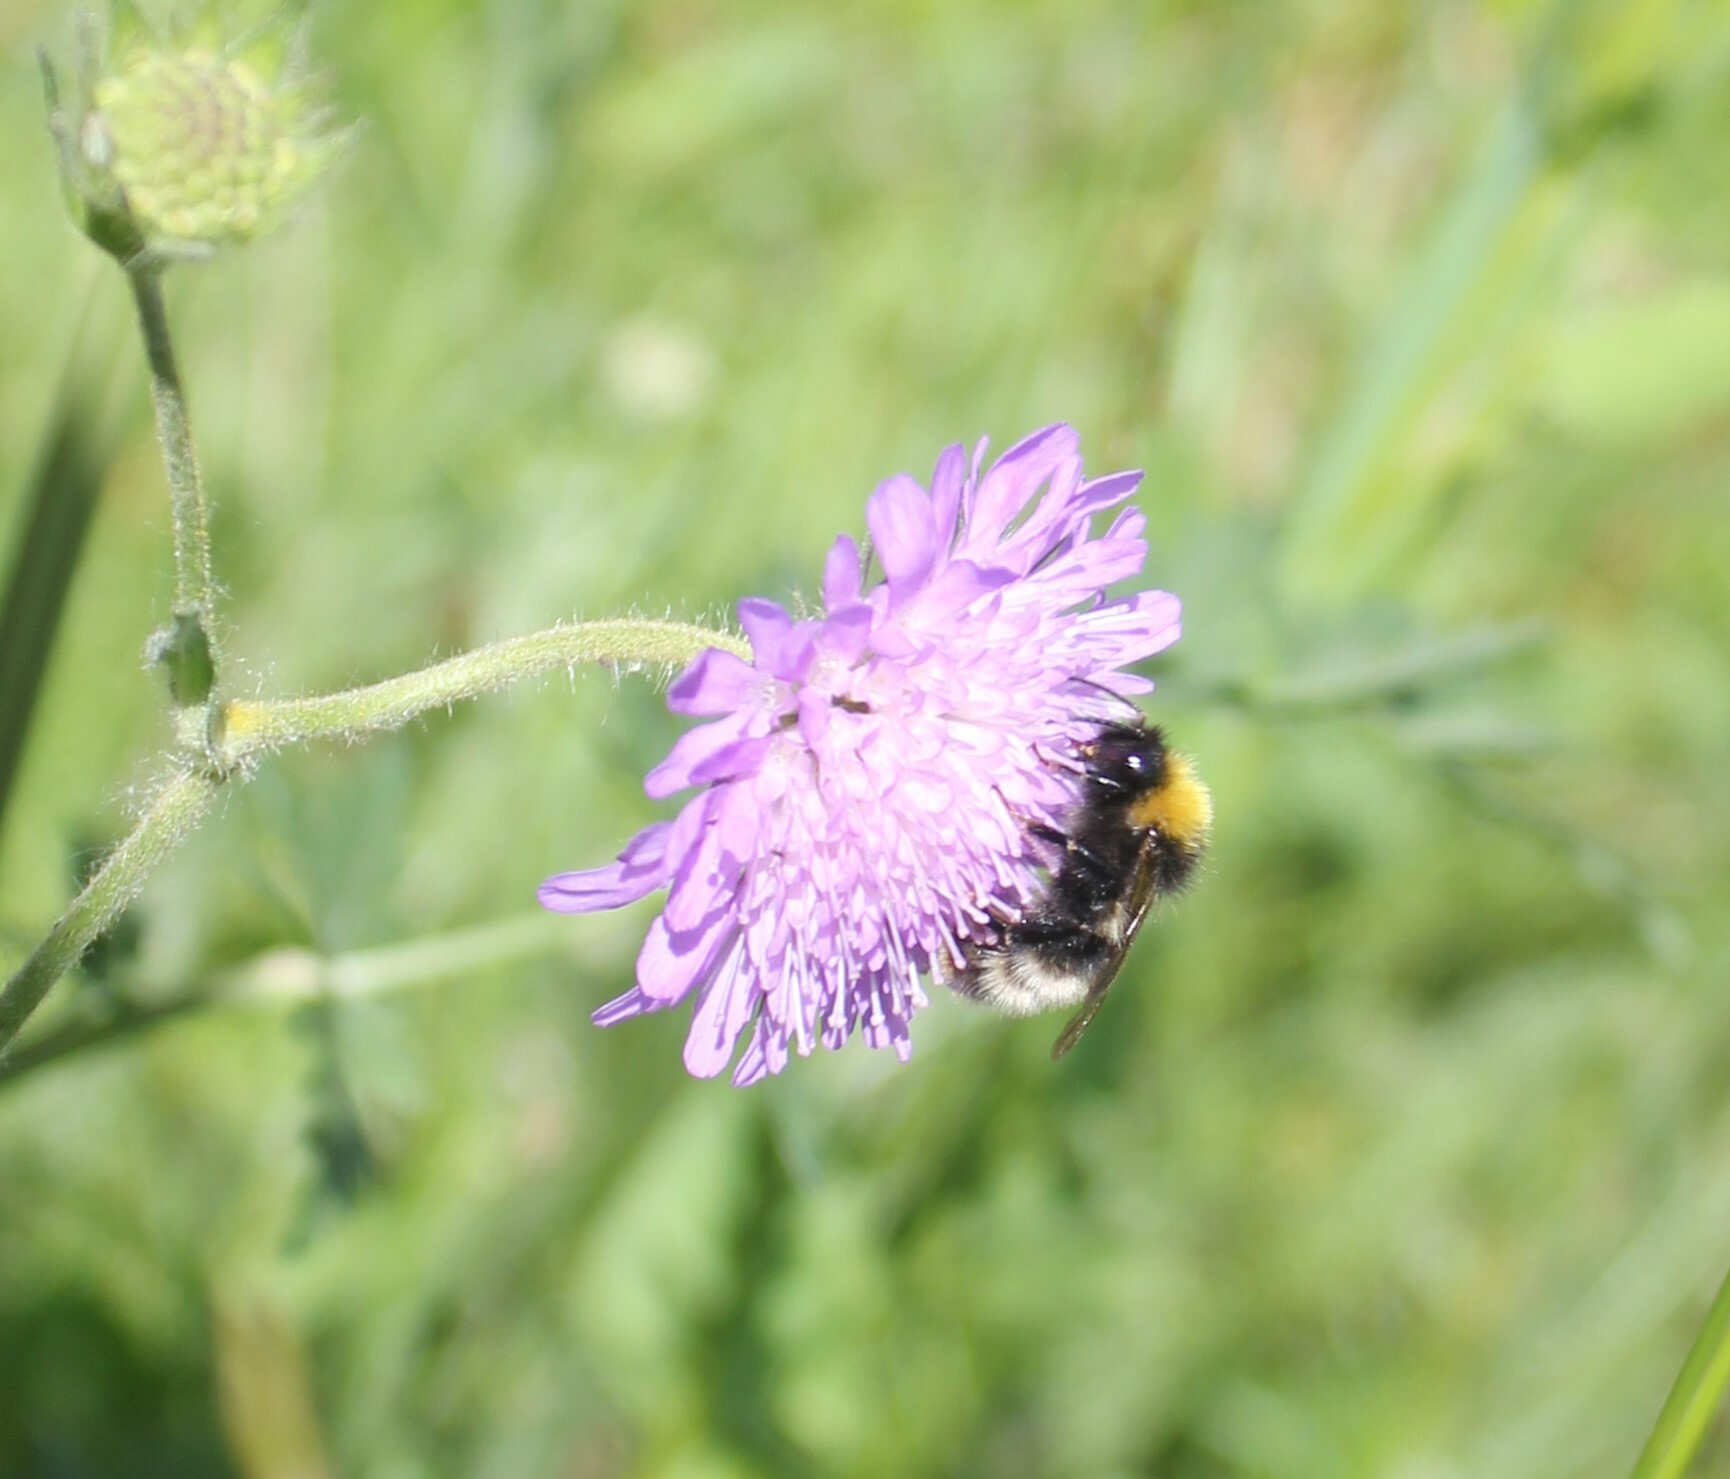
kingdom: Animalia
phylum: Arthropoda
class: Insecta
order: Hymenoptera
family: Apidae
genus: Bombus
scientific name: Bombus
